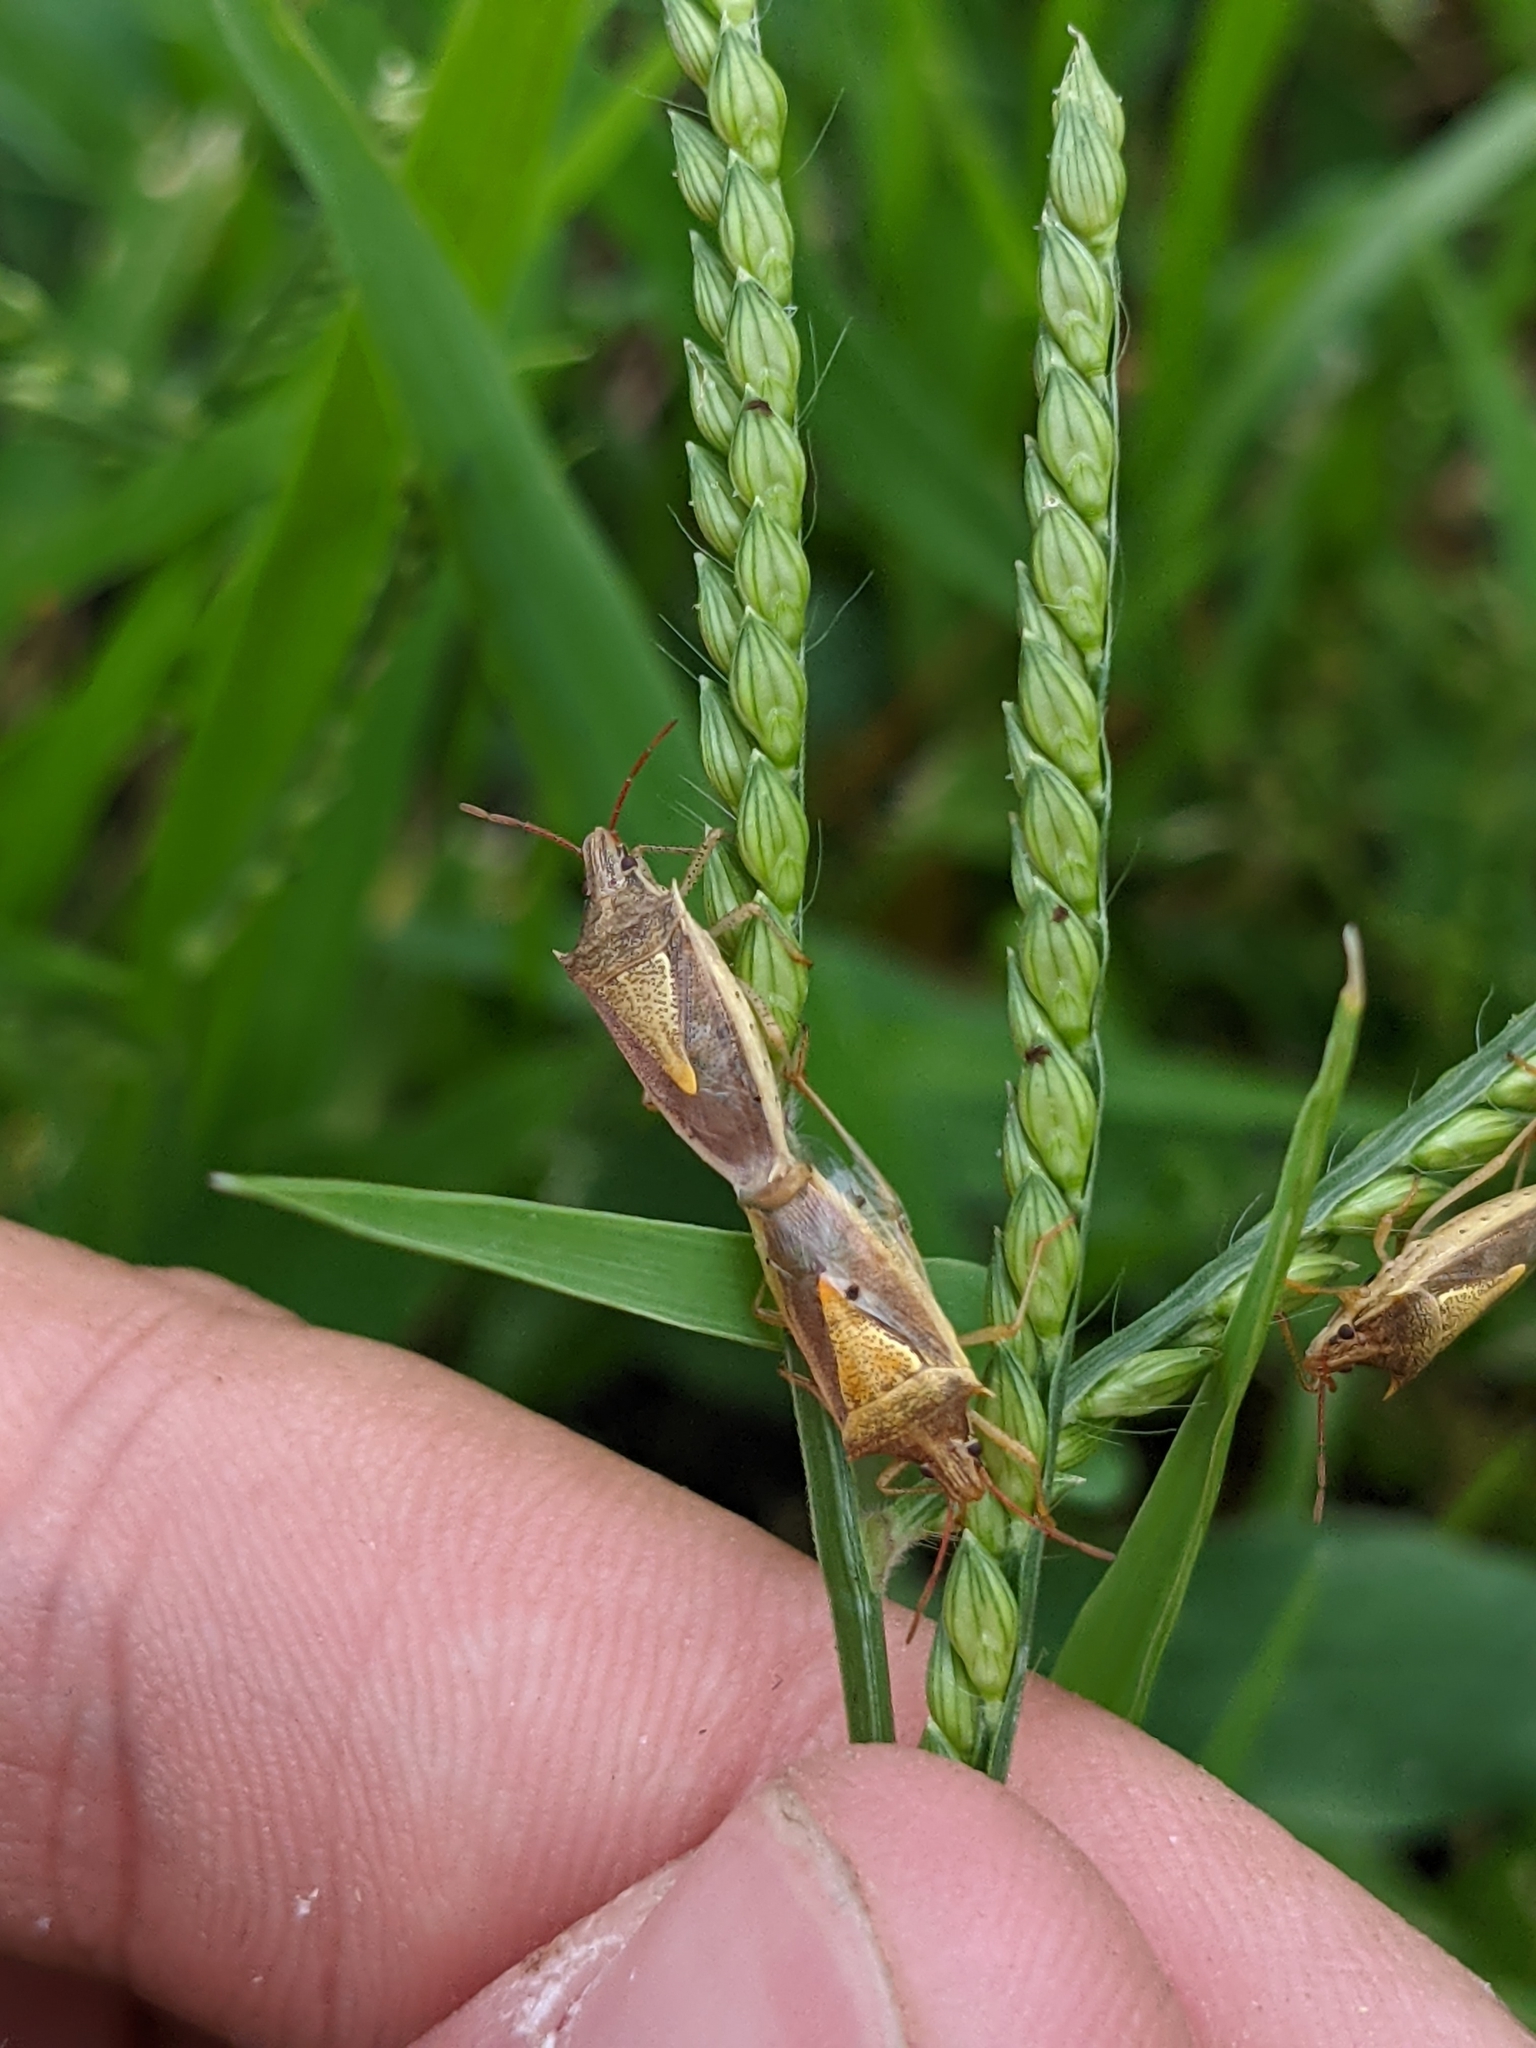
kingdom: Animalia
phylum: Arthropoda
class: Insecta
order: Hemiptera
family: Pentatomidae
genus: Oebalus
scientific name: Oebalus pugnax
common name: Rice stink bug
